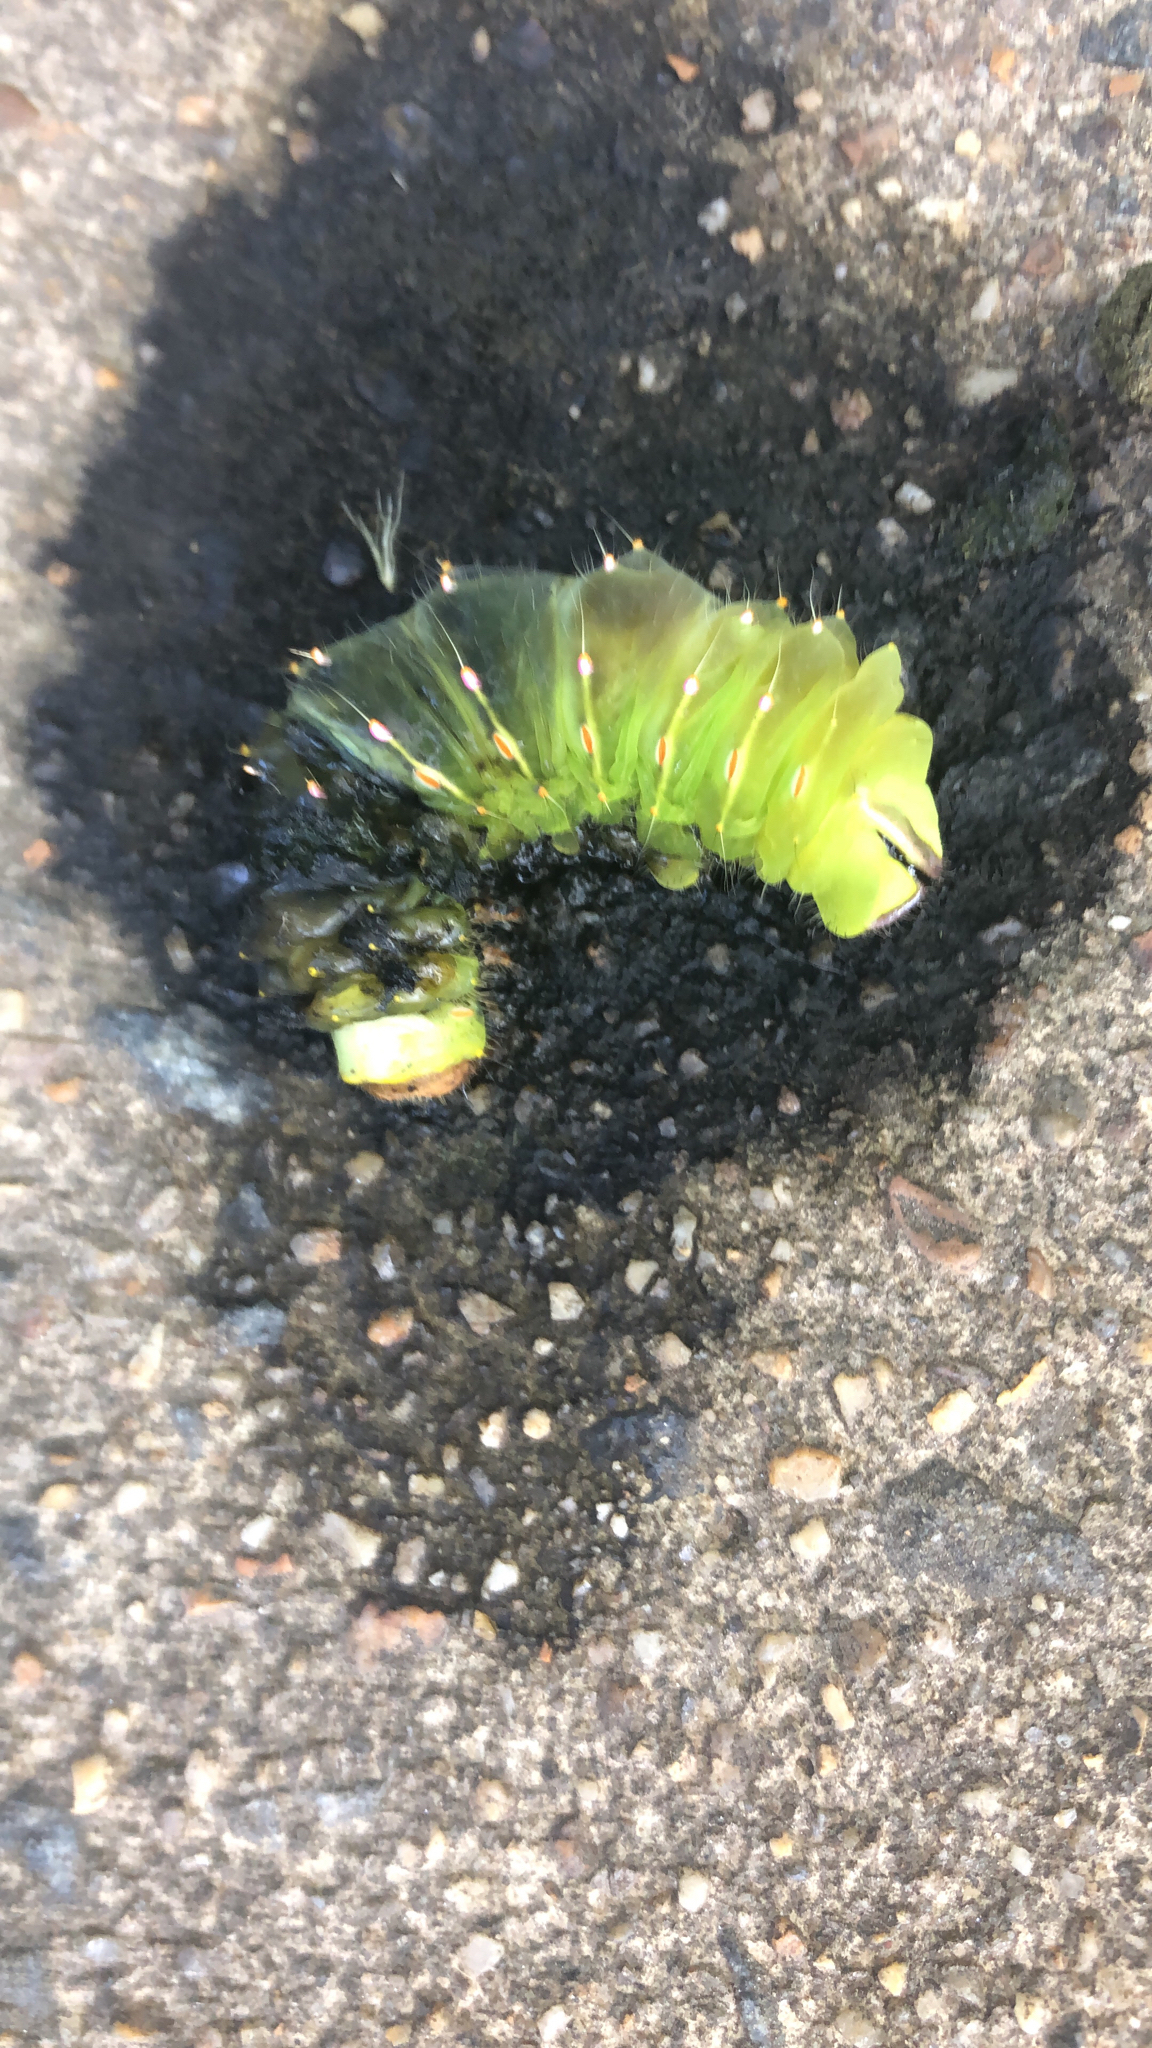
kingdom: Animalia
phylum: Arthropoda
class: Insecta
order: Lepidoptera
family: Saturniidae
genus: Antheraea
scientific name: Antheraea polyphemus
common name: Polyphemus moth
